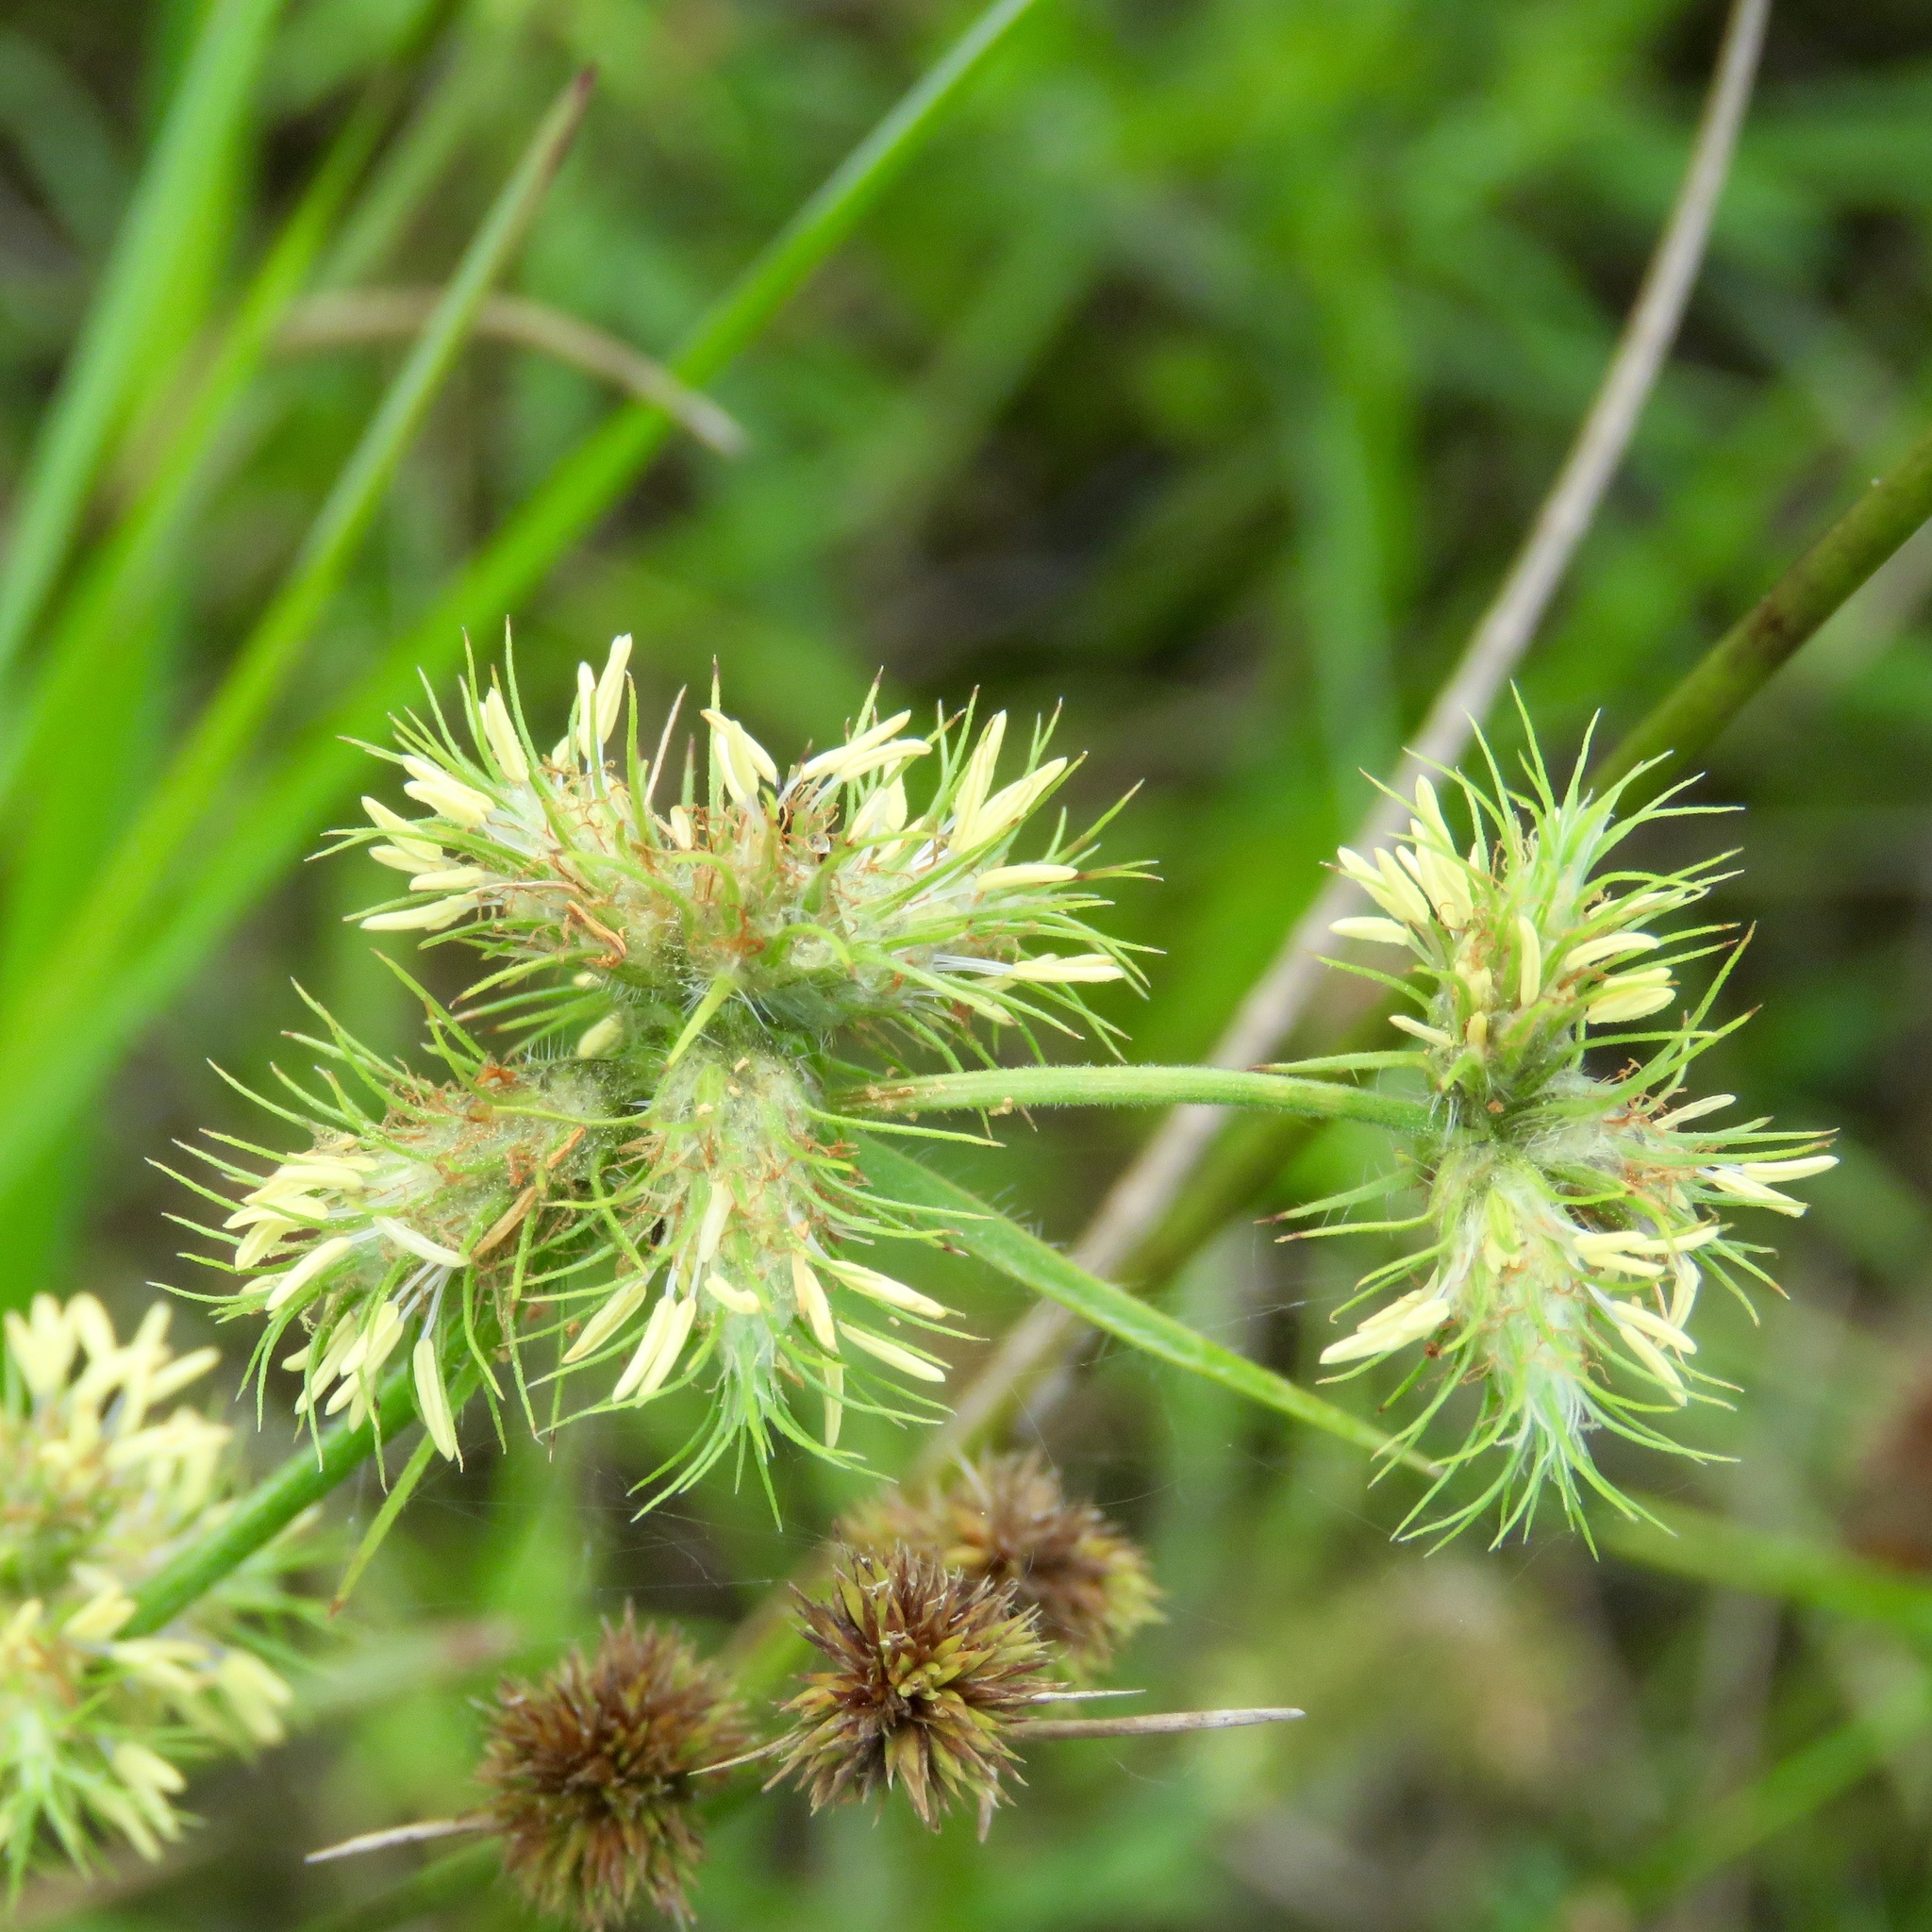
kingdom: Plantae
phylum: Tracheophyta
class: Liliopsida
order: Poales
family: Cyperaceae
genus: Fuirena
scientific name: Fuirena squarrosa
